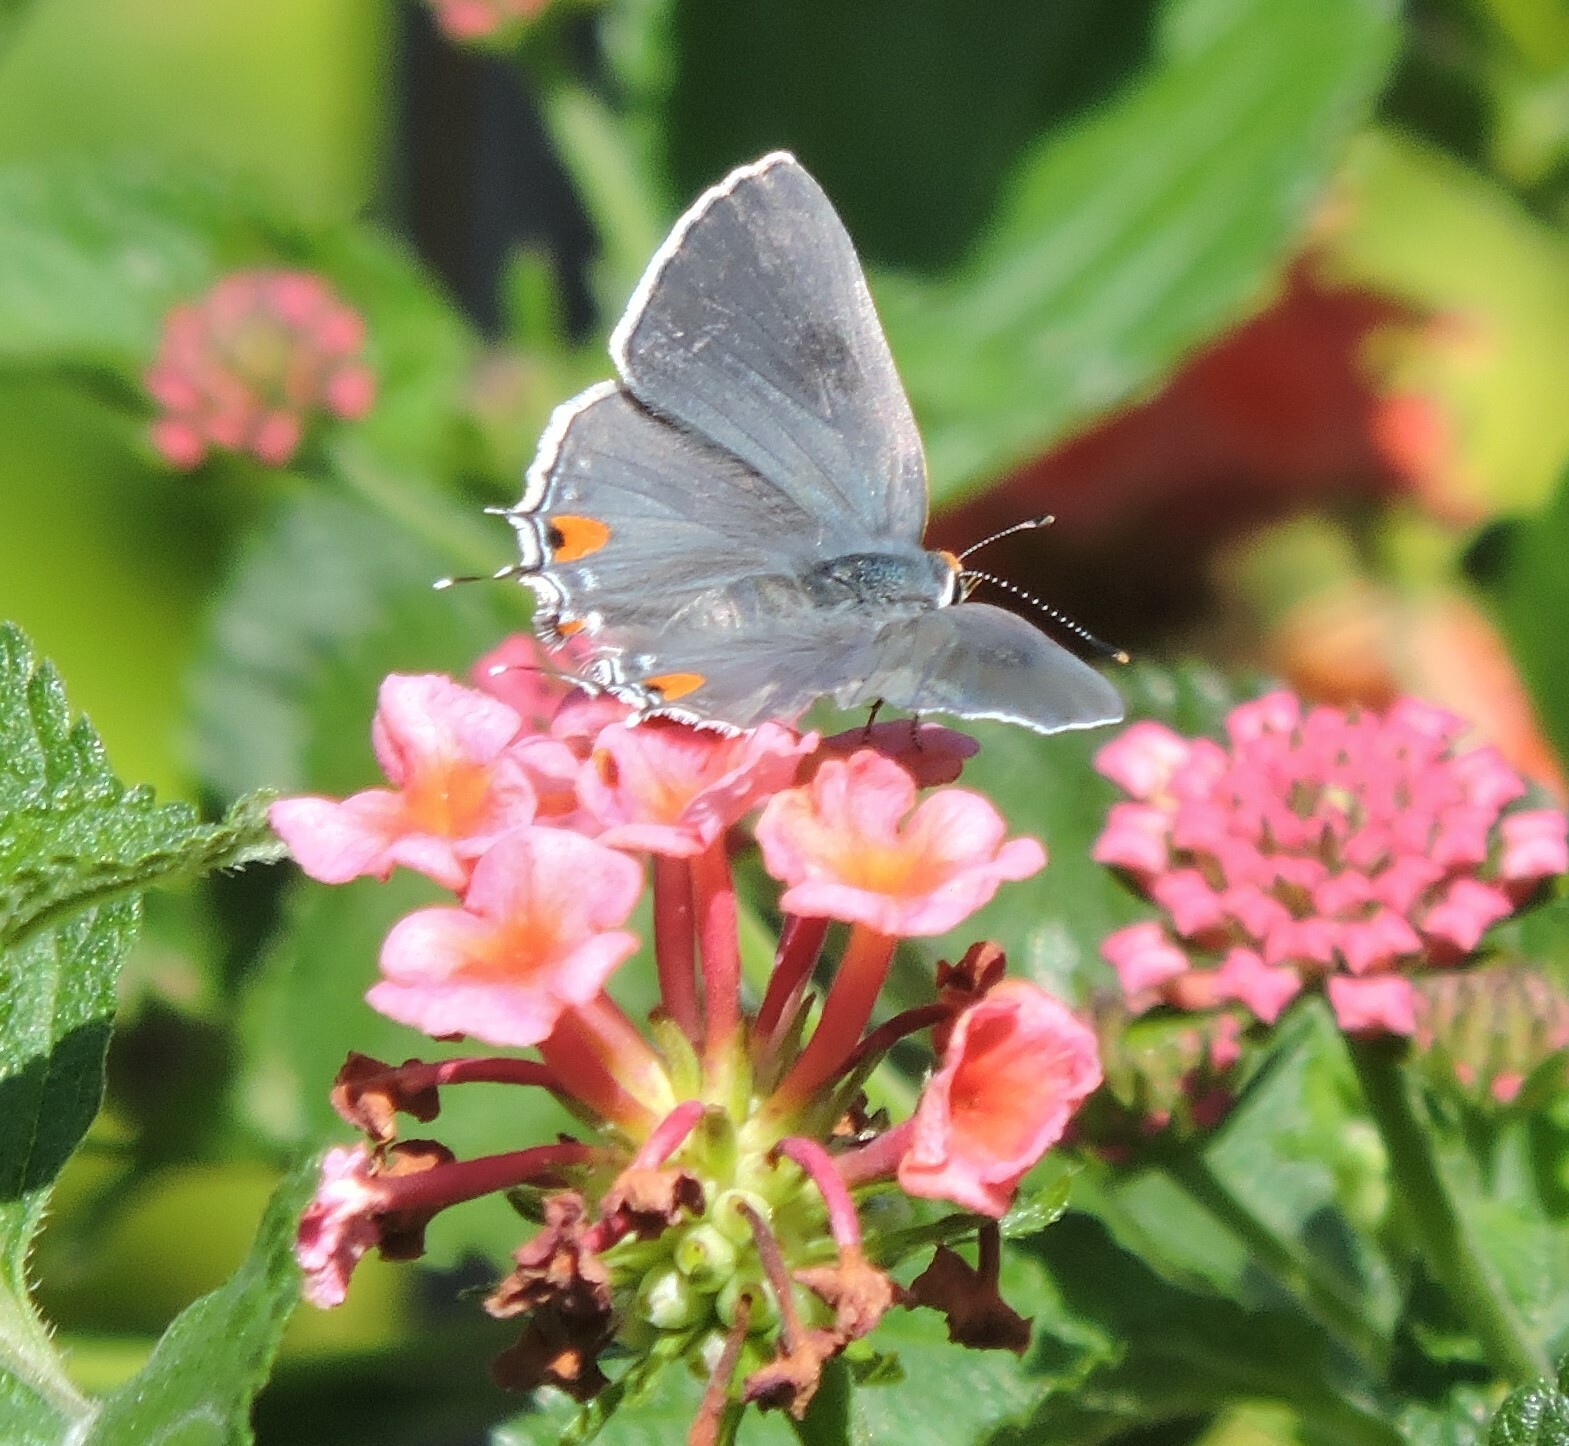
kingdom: Animalia
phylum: Arthropoda
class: Insecta
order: Lepidoptera
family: Lycaenidae
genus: Strymon
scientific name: Strymon melinus
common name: Gray hairstreak
